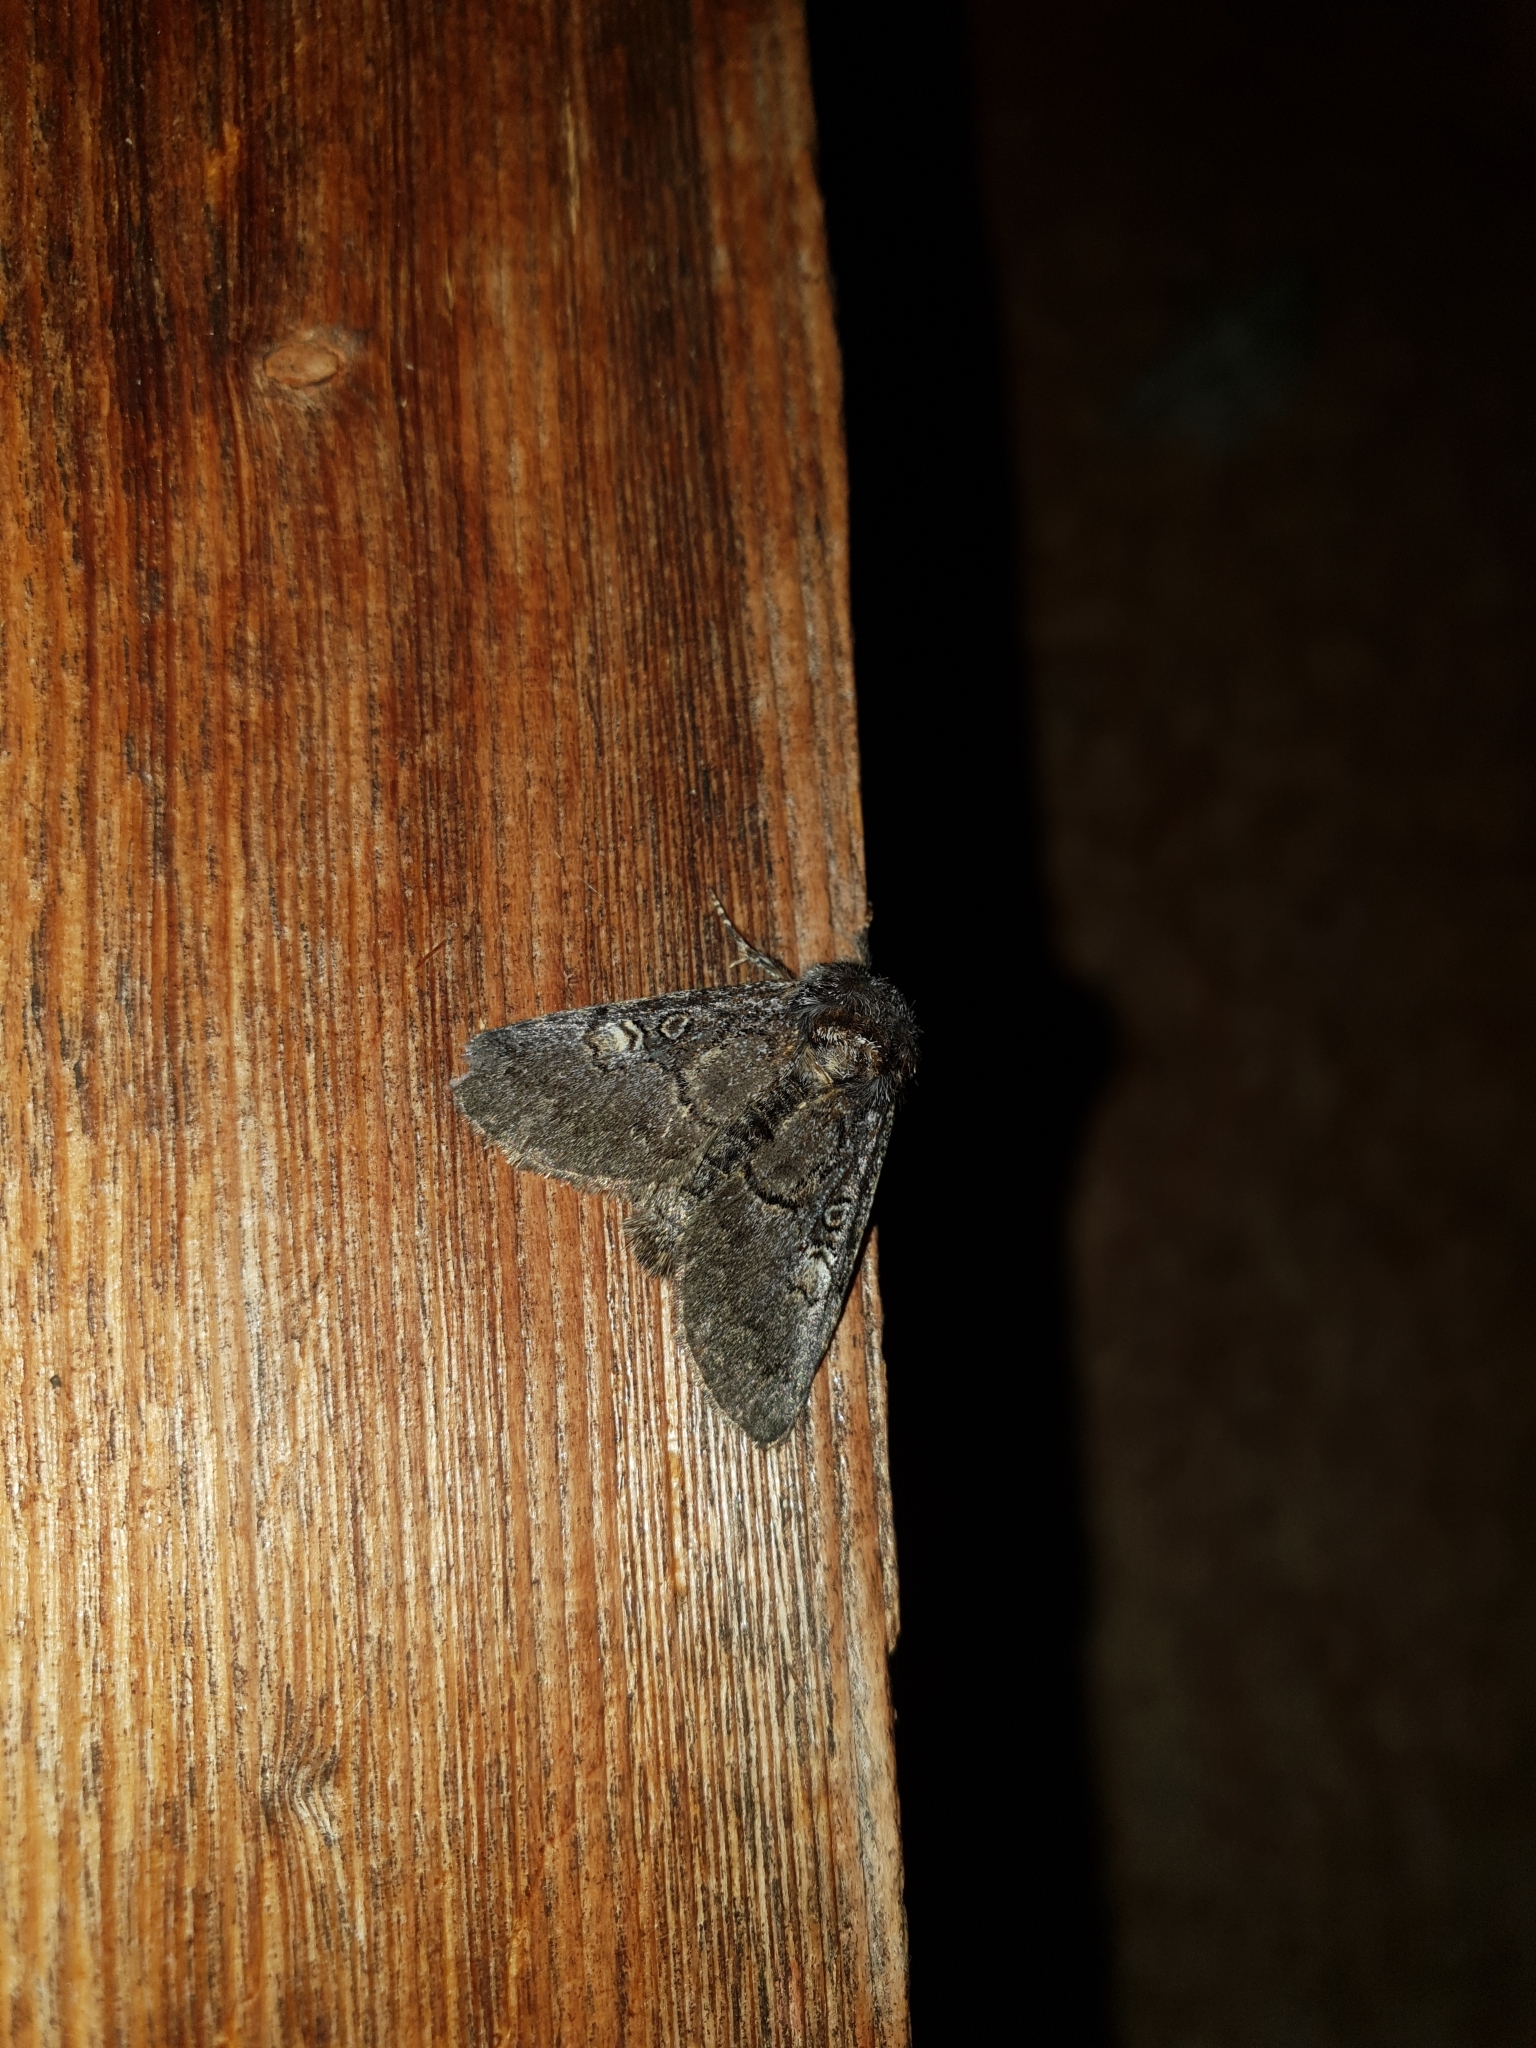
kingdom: Animalia
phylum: Arthropoda
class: Insecta
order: Lepidoptera
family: Noctuidae
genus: Colocasia
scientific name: Colocasia coryli
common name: Nut-tree tussock
